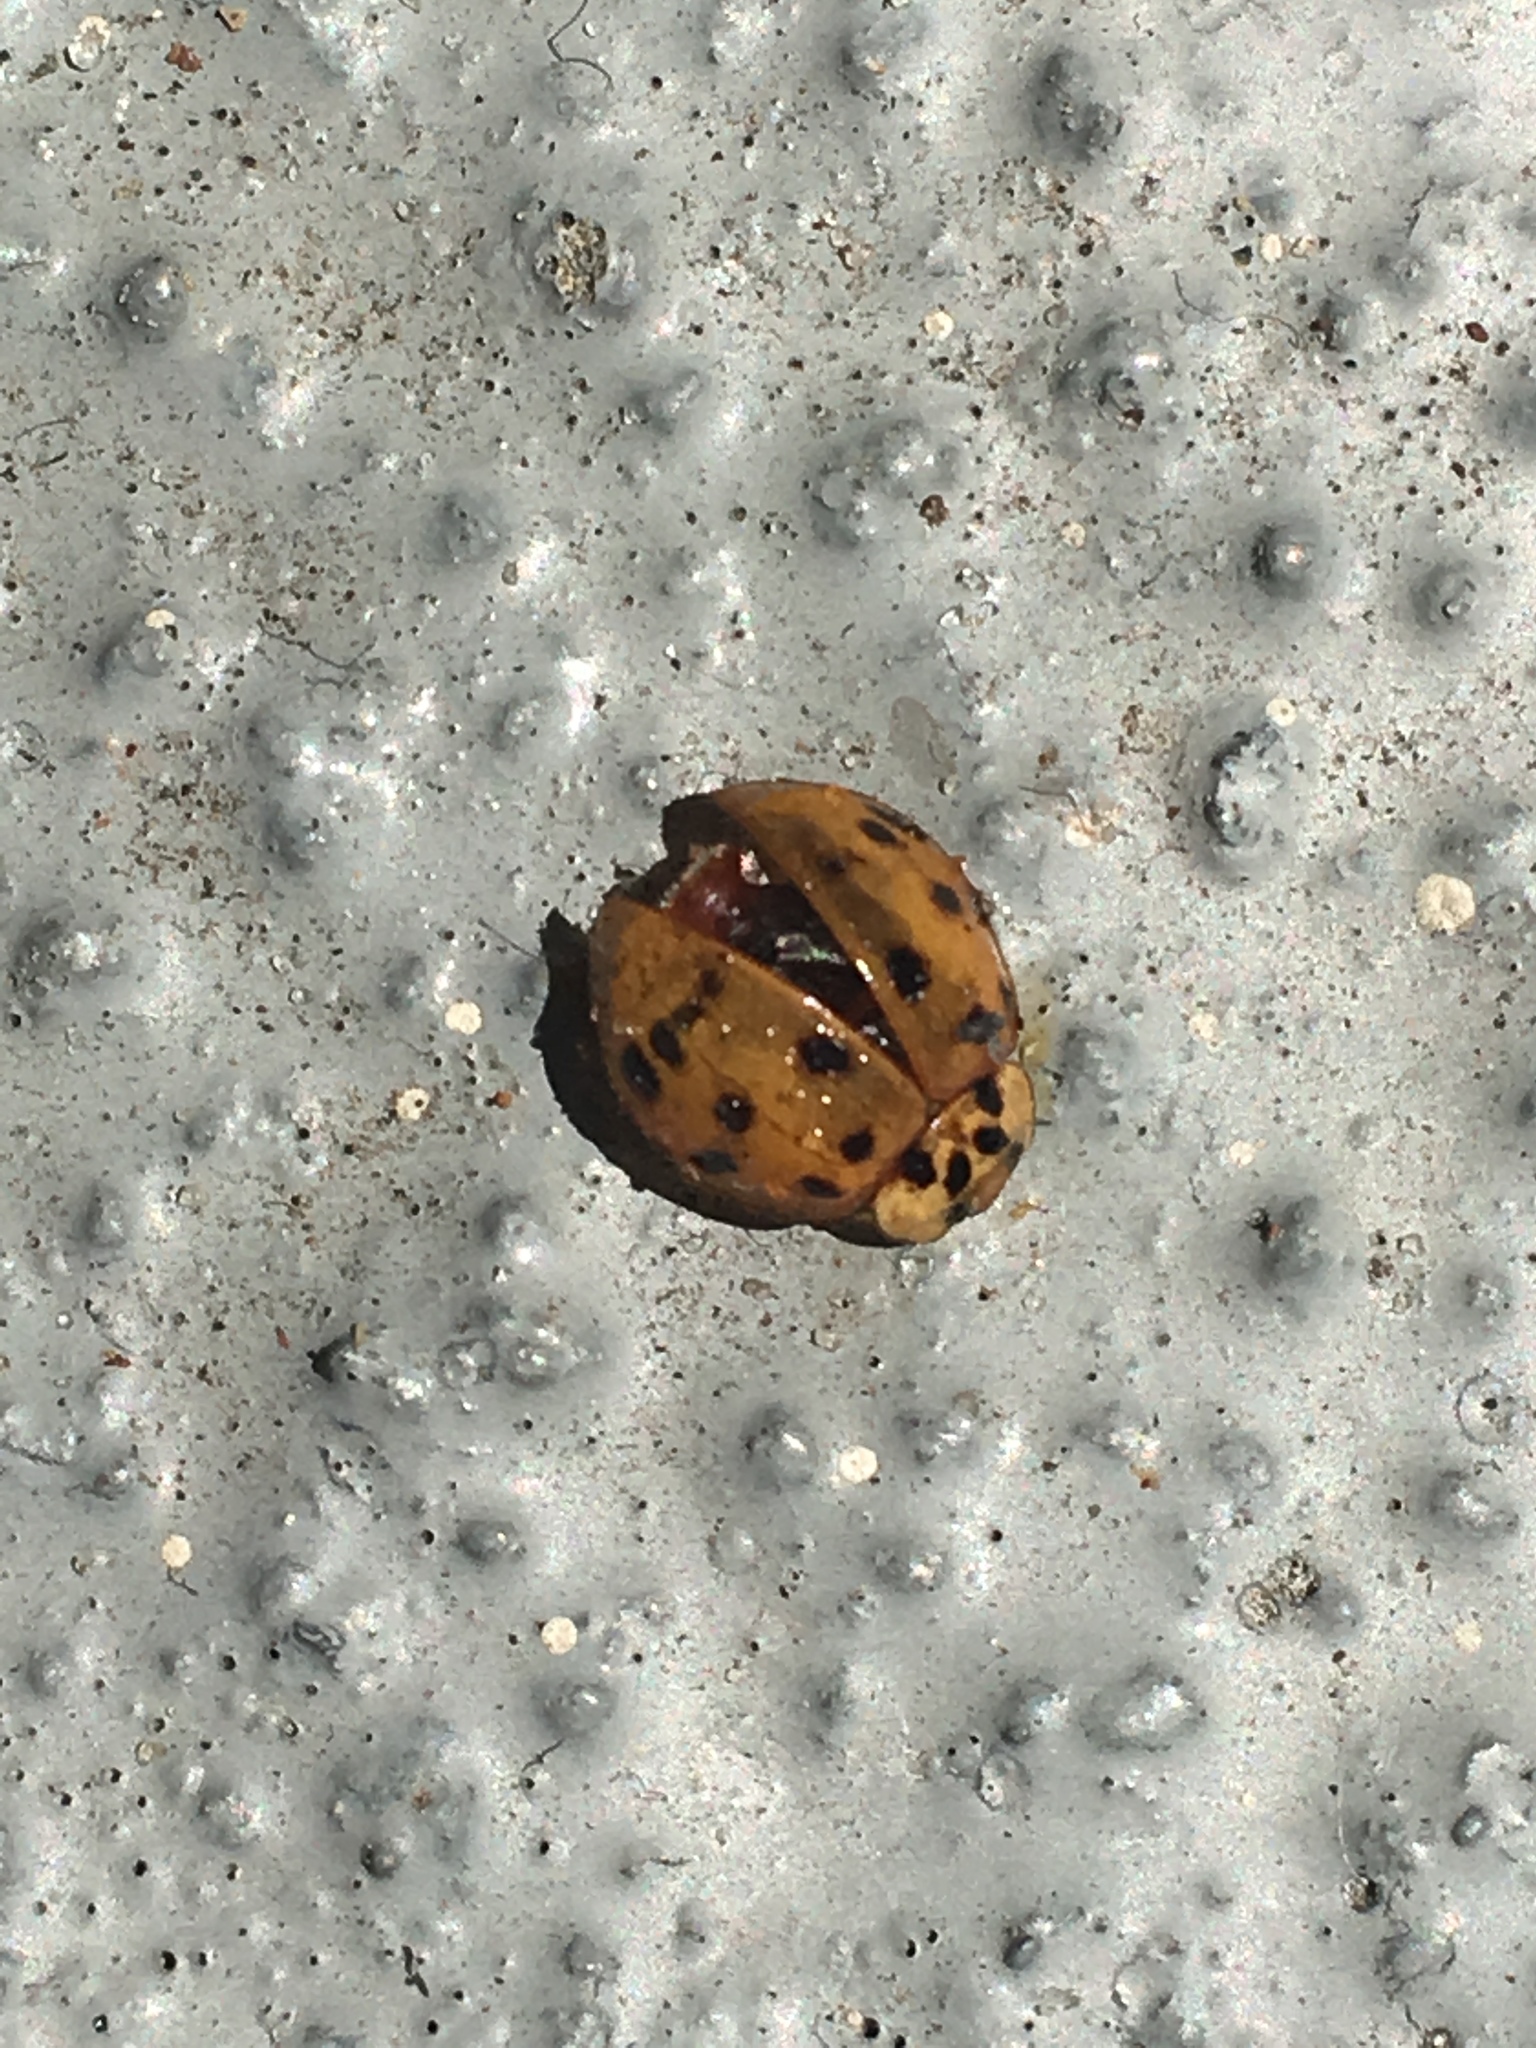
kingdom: Animalia
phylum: Arthropoda
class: Insecta
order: Coleoptera
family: Coccinellidae
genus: Harmonia
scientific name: Harmonia axyridis
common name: Harlequin ladybird
